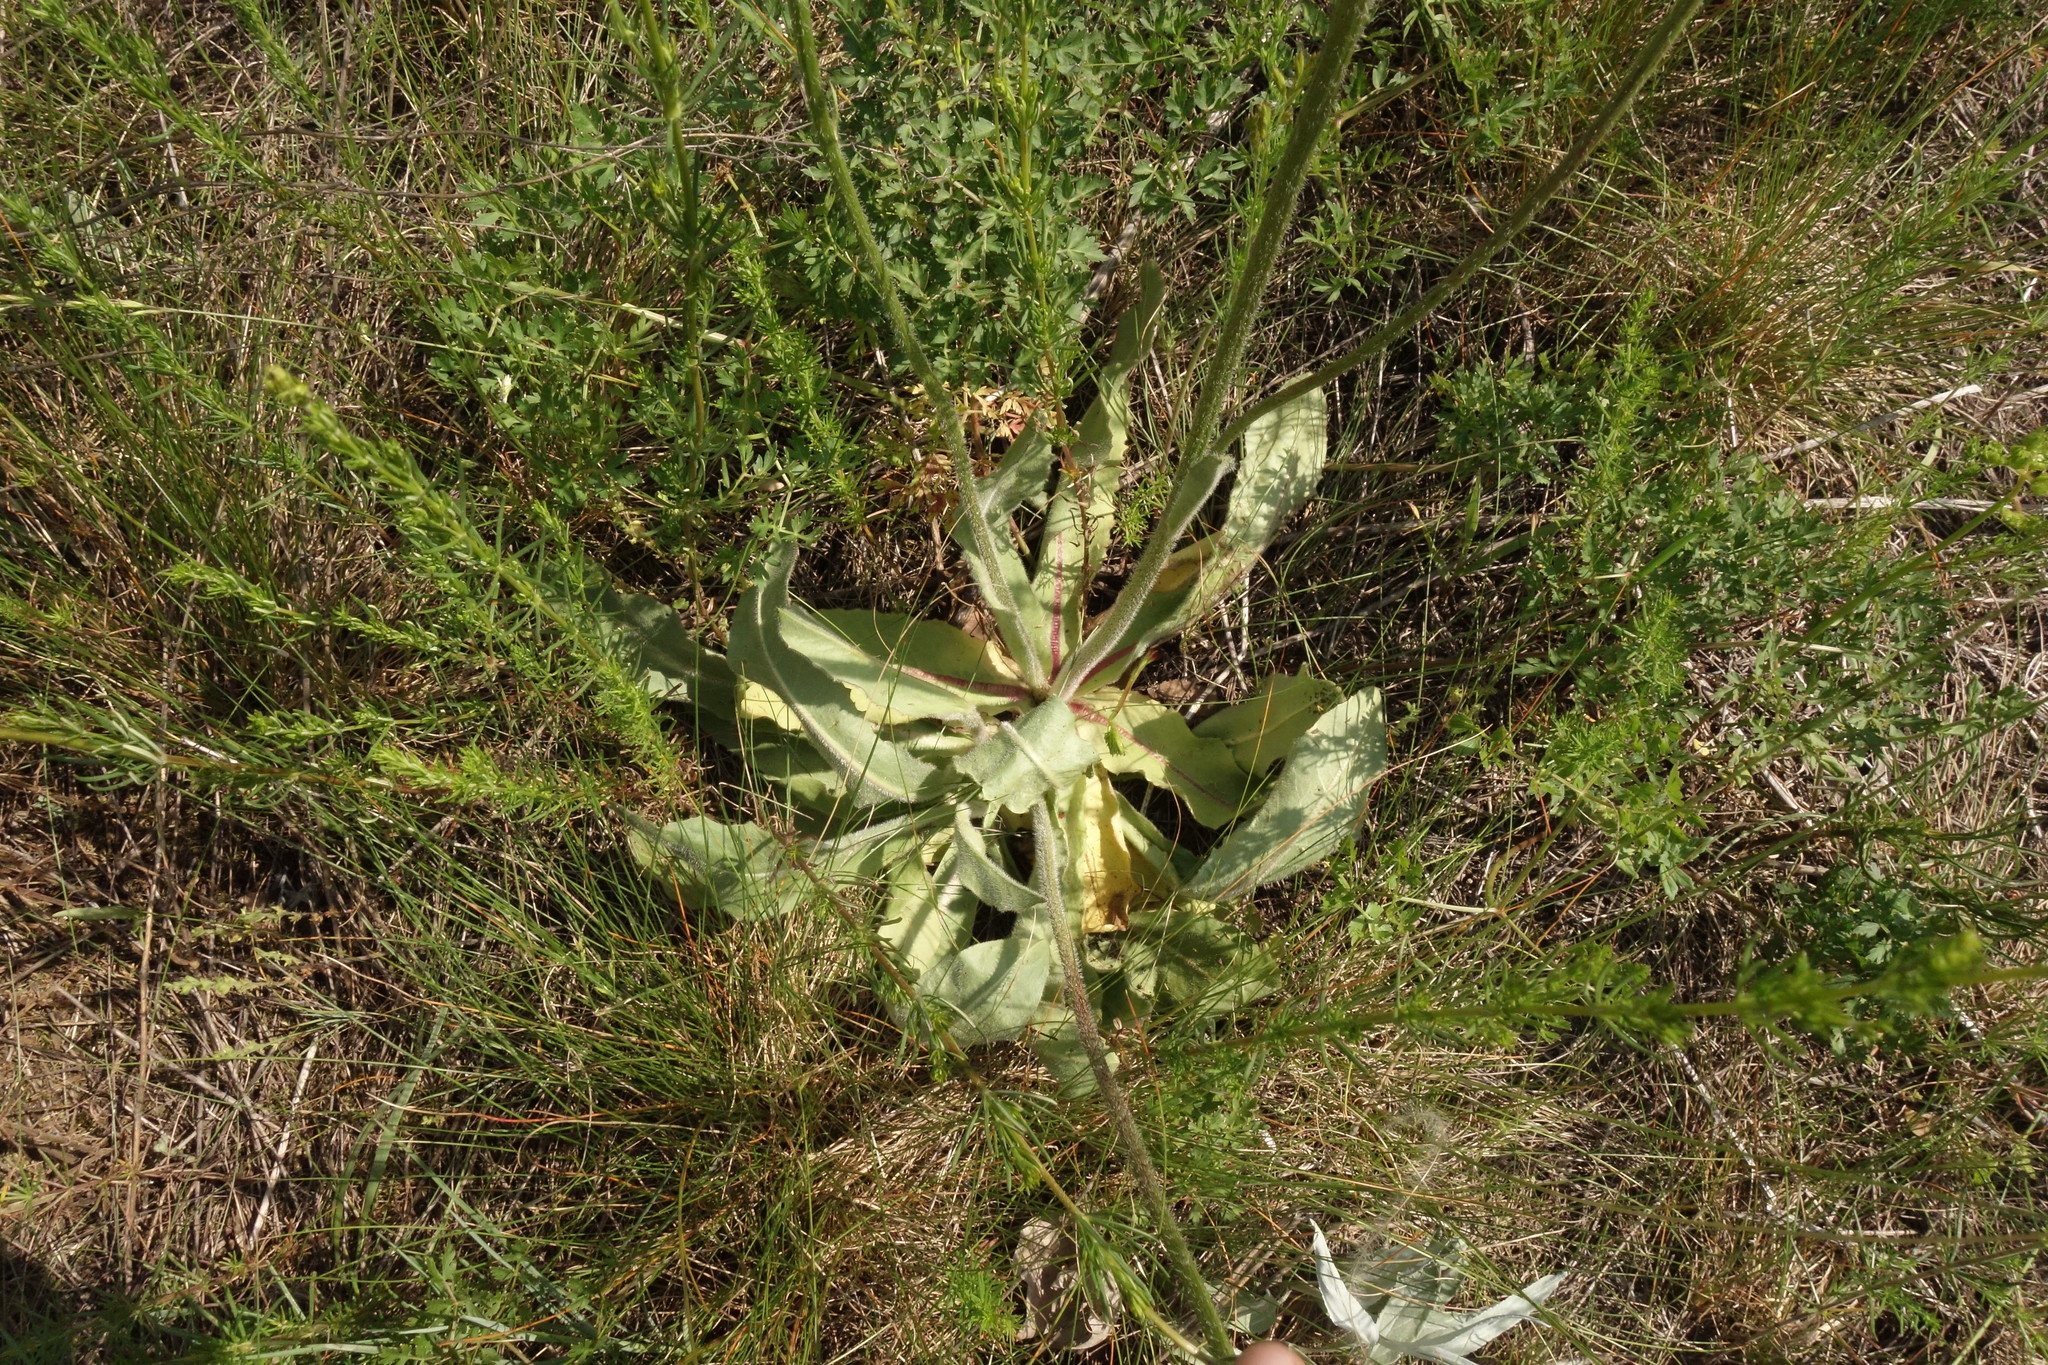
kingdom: Plantae
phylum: Tracheophyta
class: Magnoliopsida
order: Asterales
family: Asteraceae
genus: Trommsdorffia
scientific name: Trommsdorffia maculata
